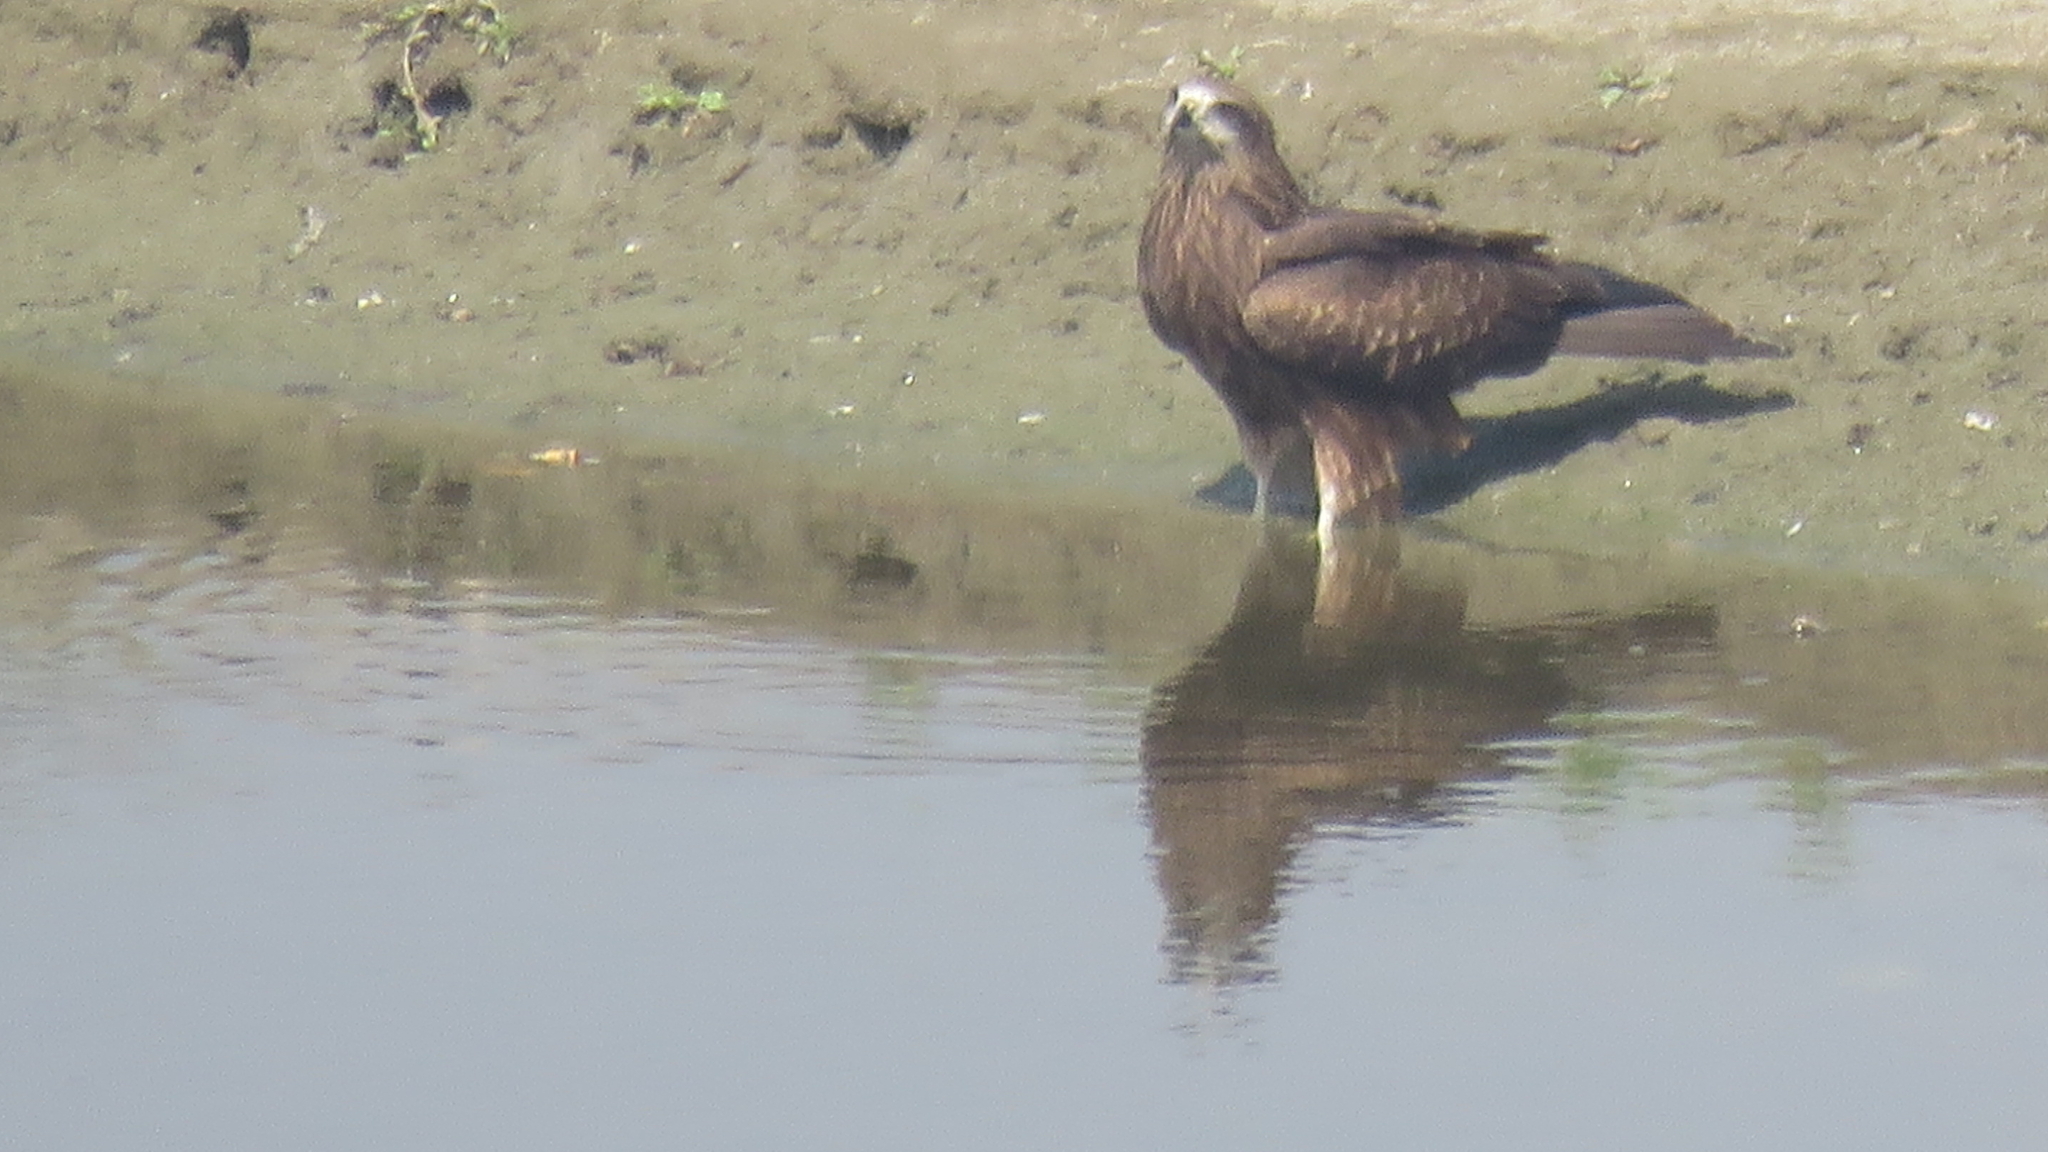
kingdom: Animalia
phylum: Chordata
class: Aves
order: Accipitriformes
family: Accipitridae
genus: Milvus
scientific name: Milvus migrans
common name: Black kite
